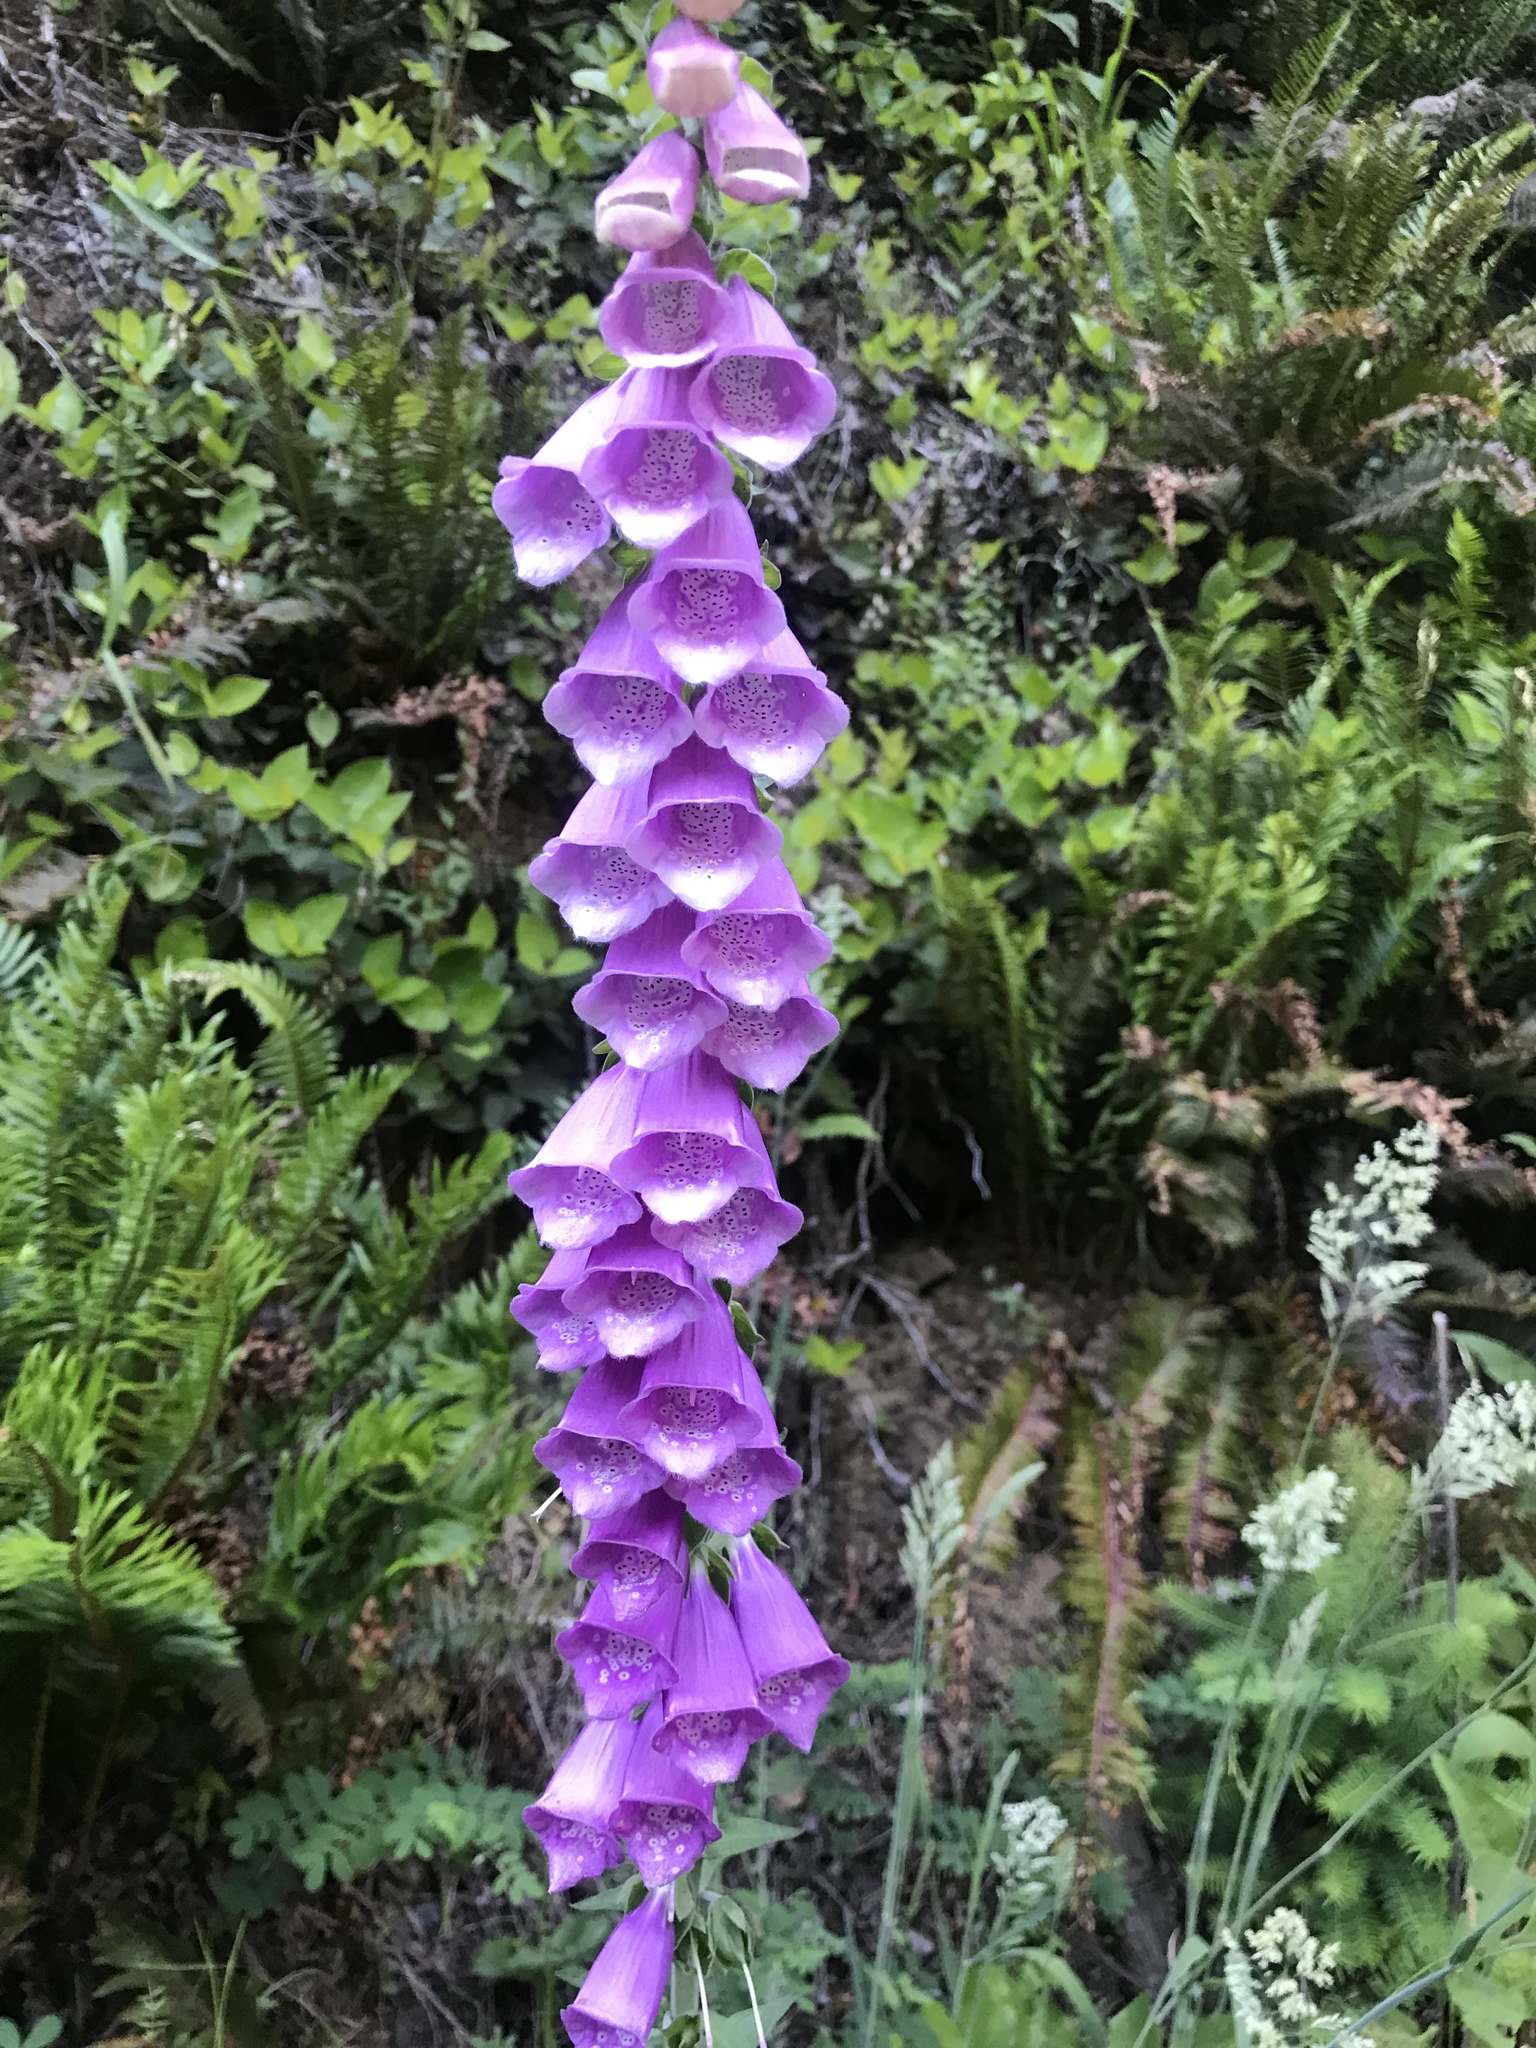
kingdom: Plantae
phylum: Tracheophyta
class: Magnoliopsida
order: Lamiales
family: Plantaginaceae
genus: Digitalis
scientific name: Digitalis purpurea
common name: Foxglove
